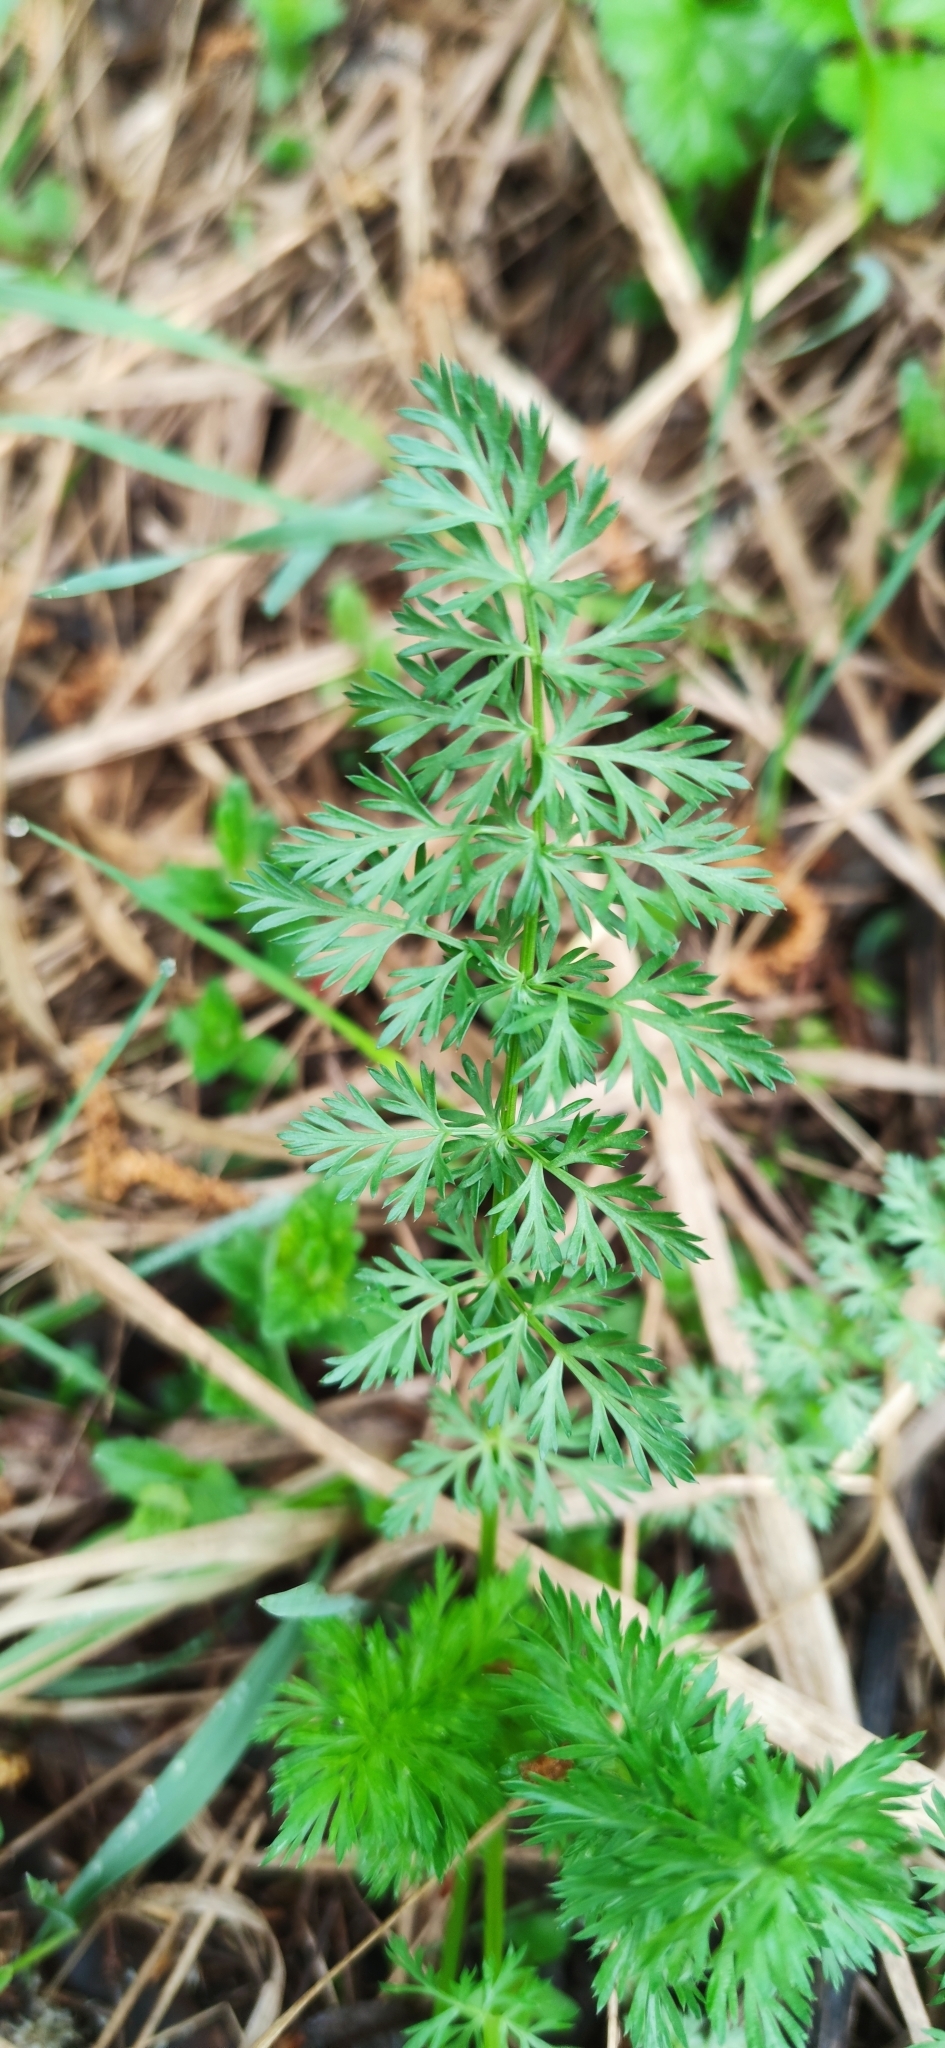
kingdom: Plantae
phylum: Tracheophyta
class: Magnoliopsida
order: Apiales
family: Apiaceae
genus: Carum
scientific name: Carum carvi
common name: Caraway
